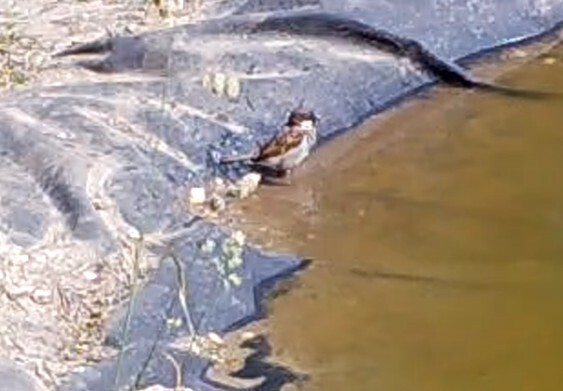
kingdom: Animalia
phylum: Chordata
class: Aves
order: Passeriformes
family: Passeridae
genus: Passer
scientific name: Passer domesticus
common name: House sparrow
